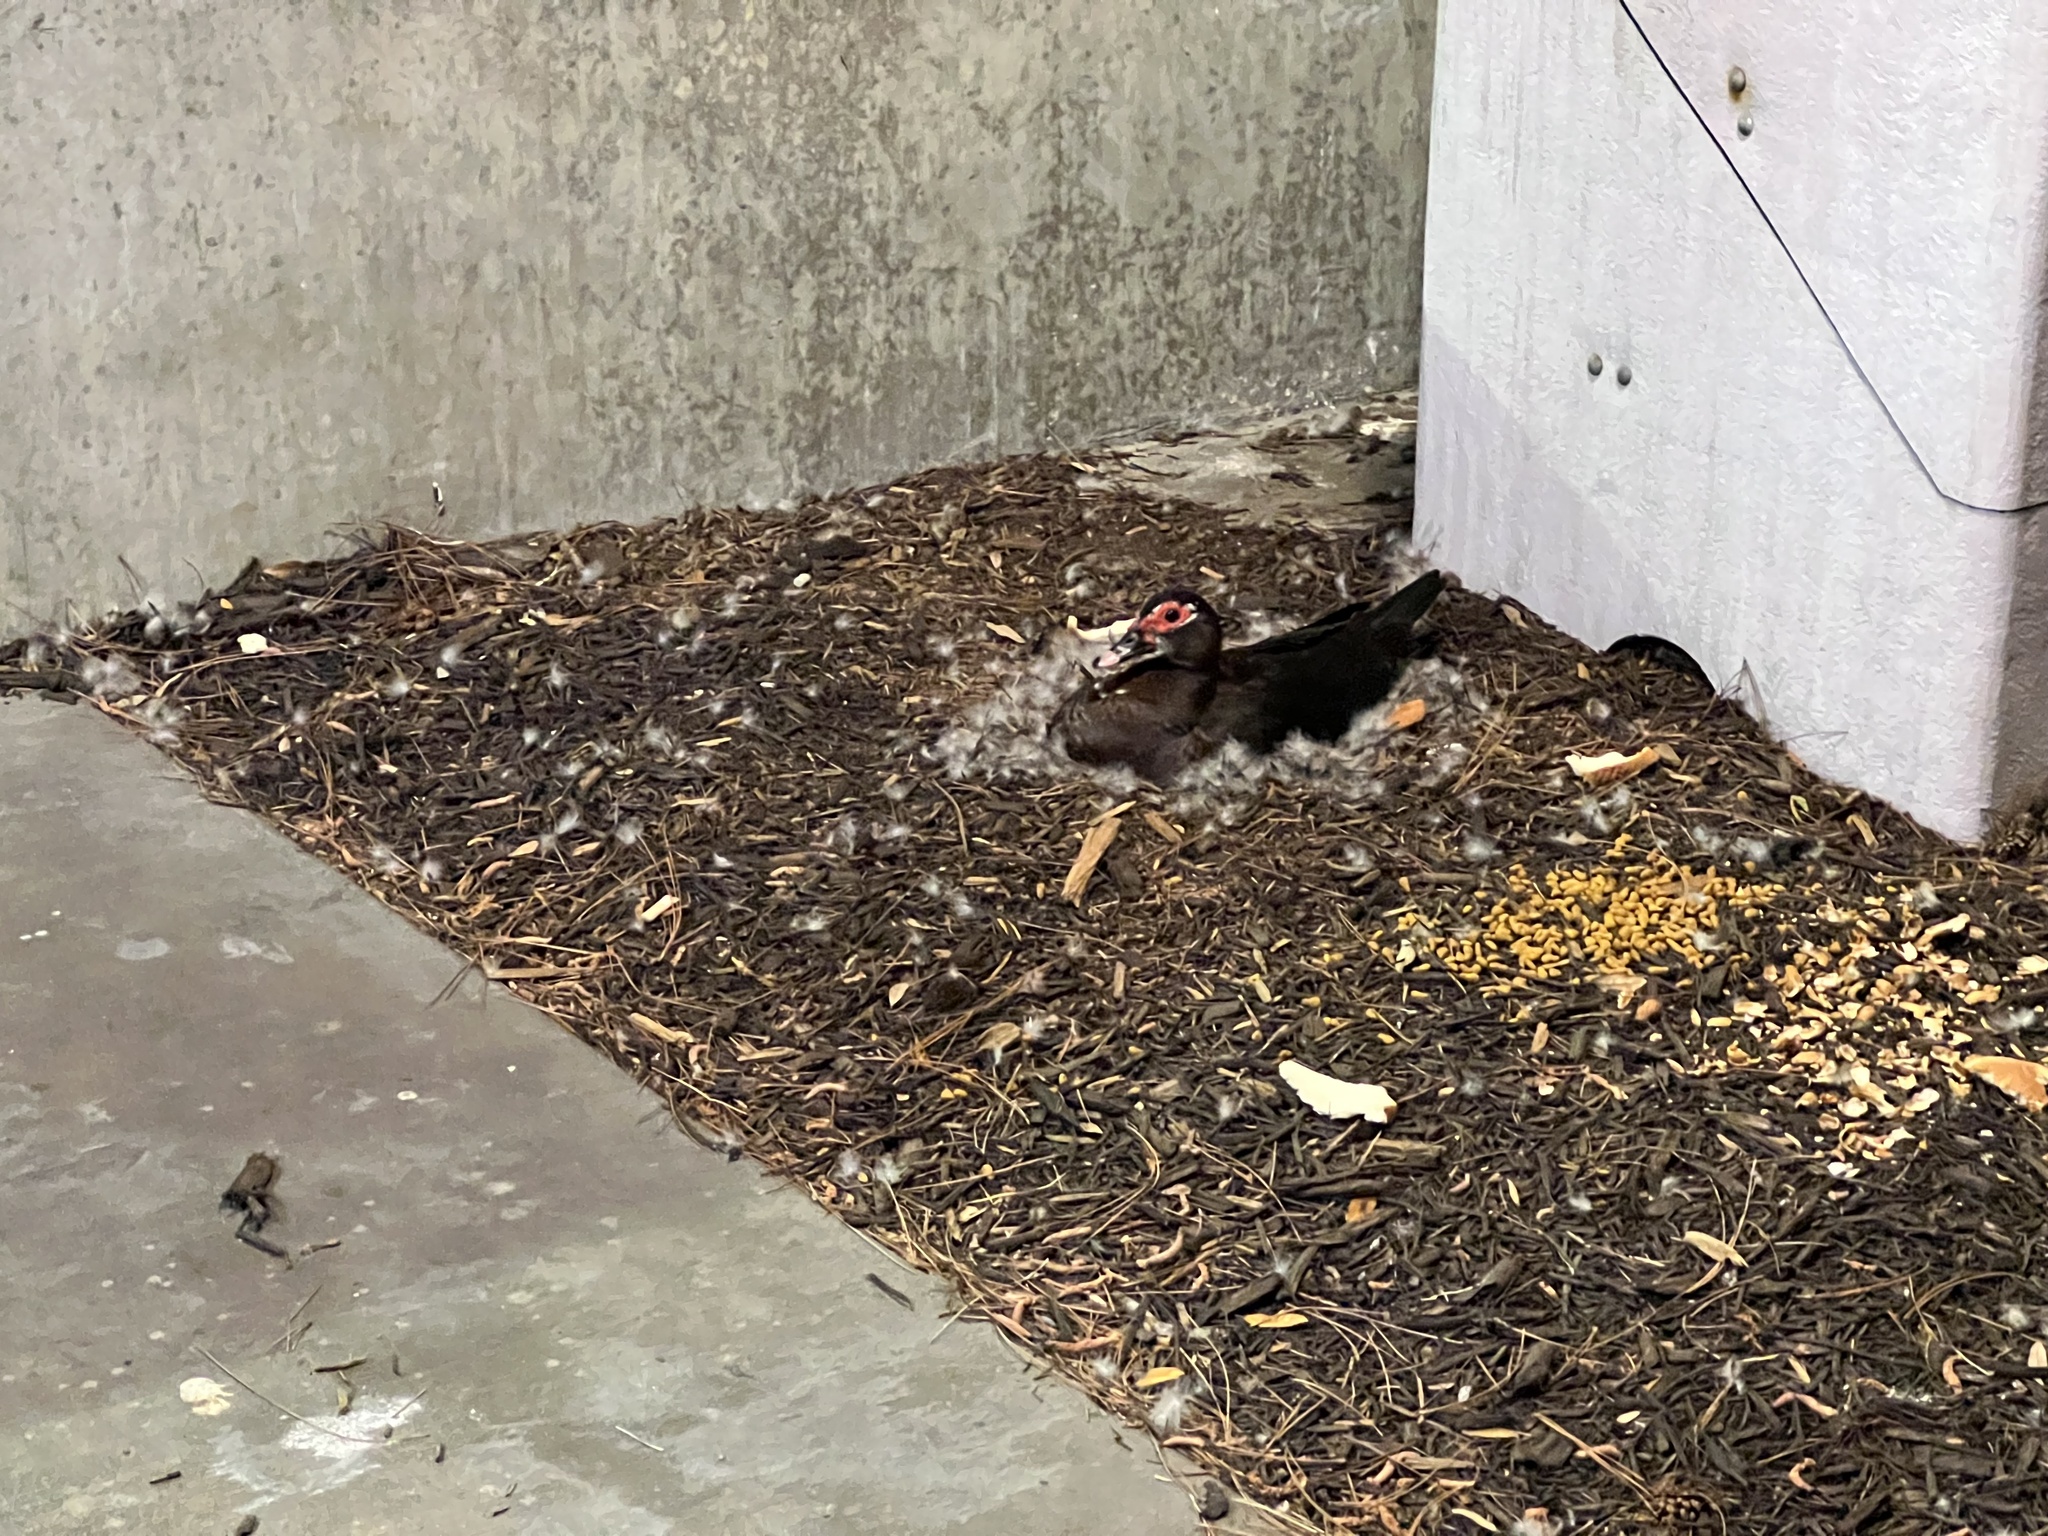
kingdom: Animalia
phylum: Chordata
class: Aves
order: Anseriformes
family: Anatidae
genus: Cairina
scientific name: Cairina moschata
